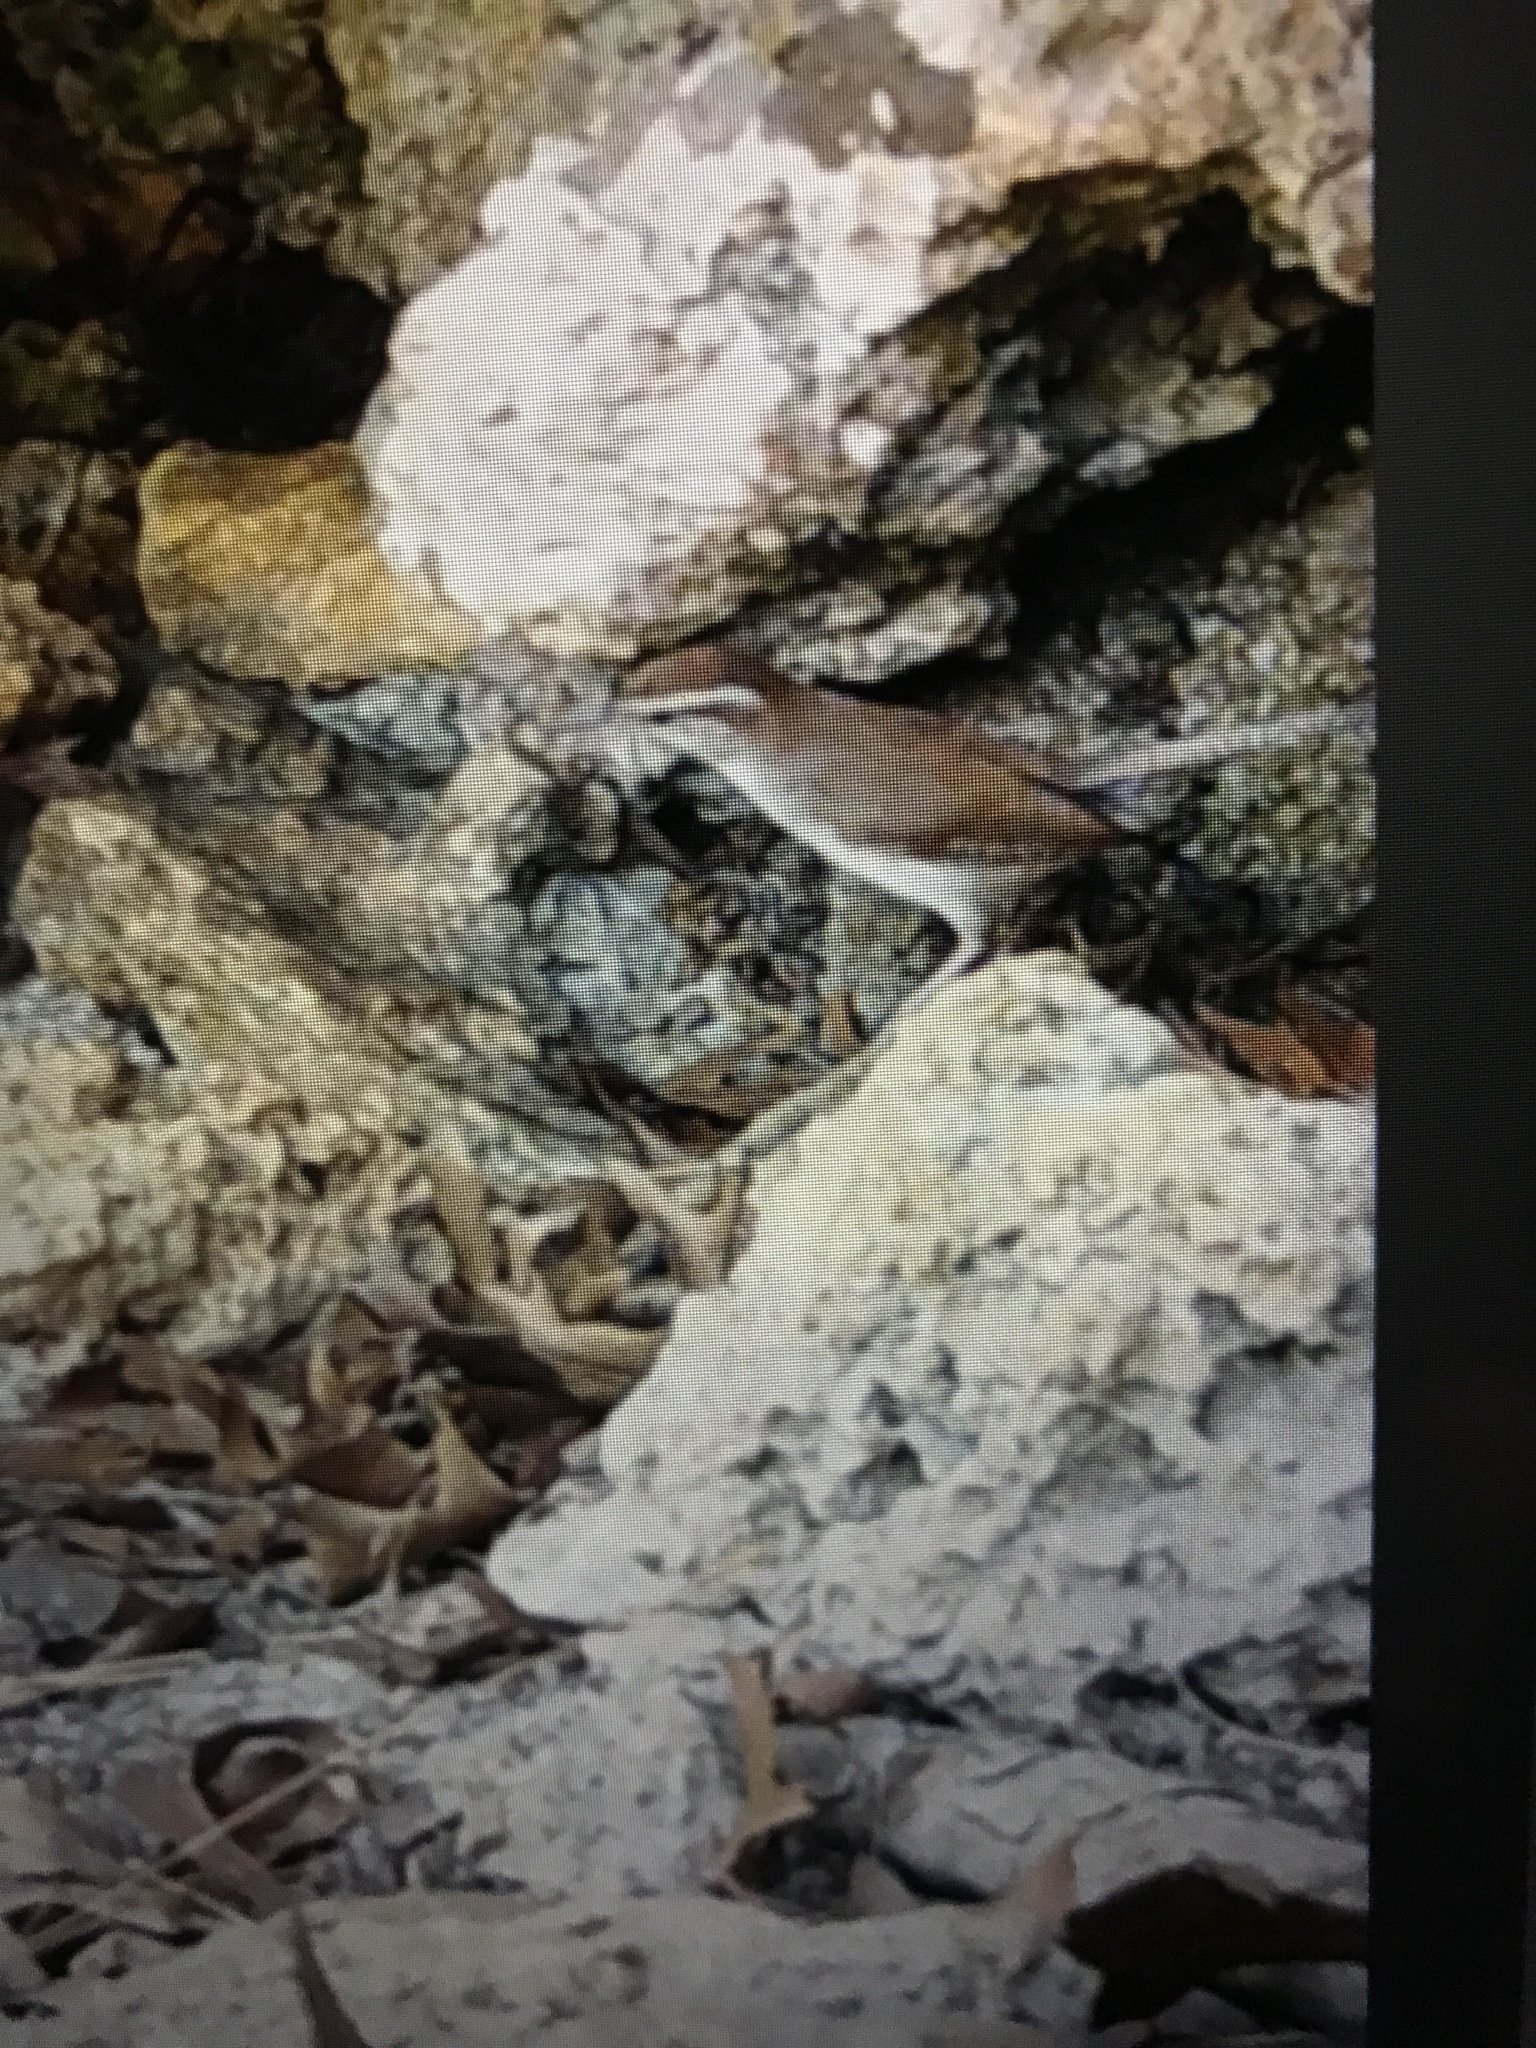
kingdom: Animalia
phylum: Chordata
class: Aves
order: Passeriformes
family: Troglodytidae
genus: Thryomanes
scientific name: Thryomanes bewickii
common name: Bewick's wren
